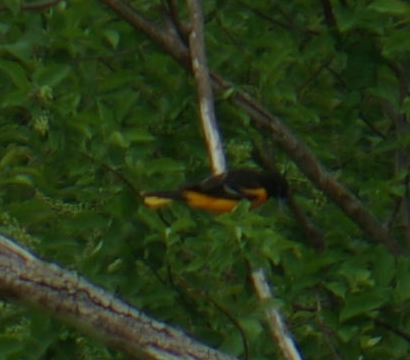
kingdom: Animalia
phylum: Chordata
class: Aves
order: Passeriformes
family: Icteridae
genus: Icterus
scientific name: Icterus galbula
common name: Baltimore oriole
